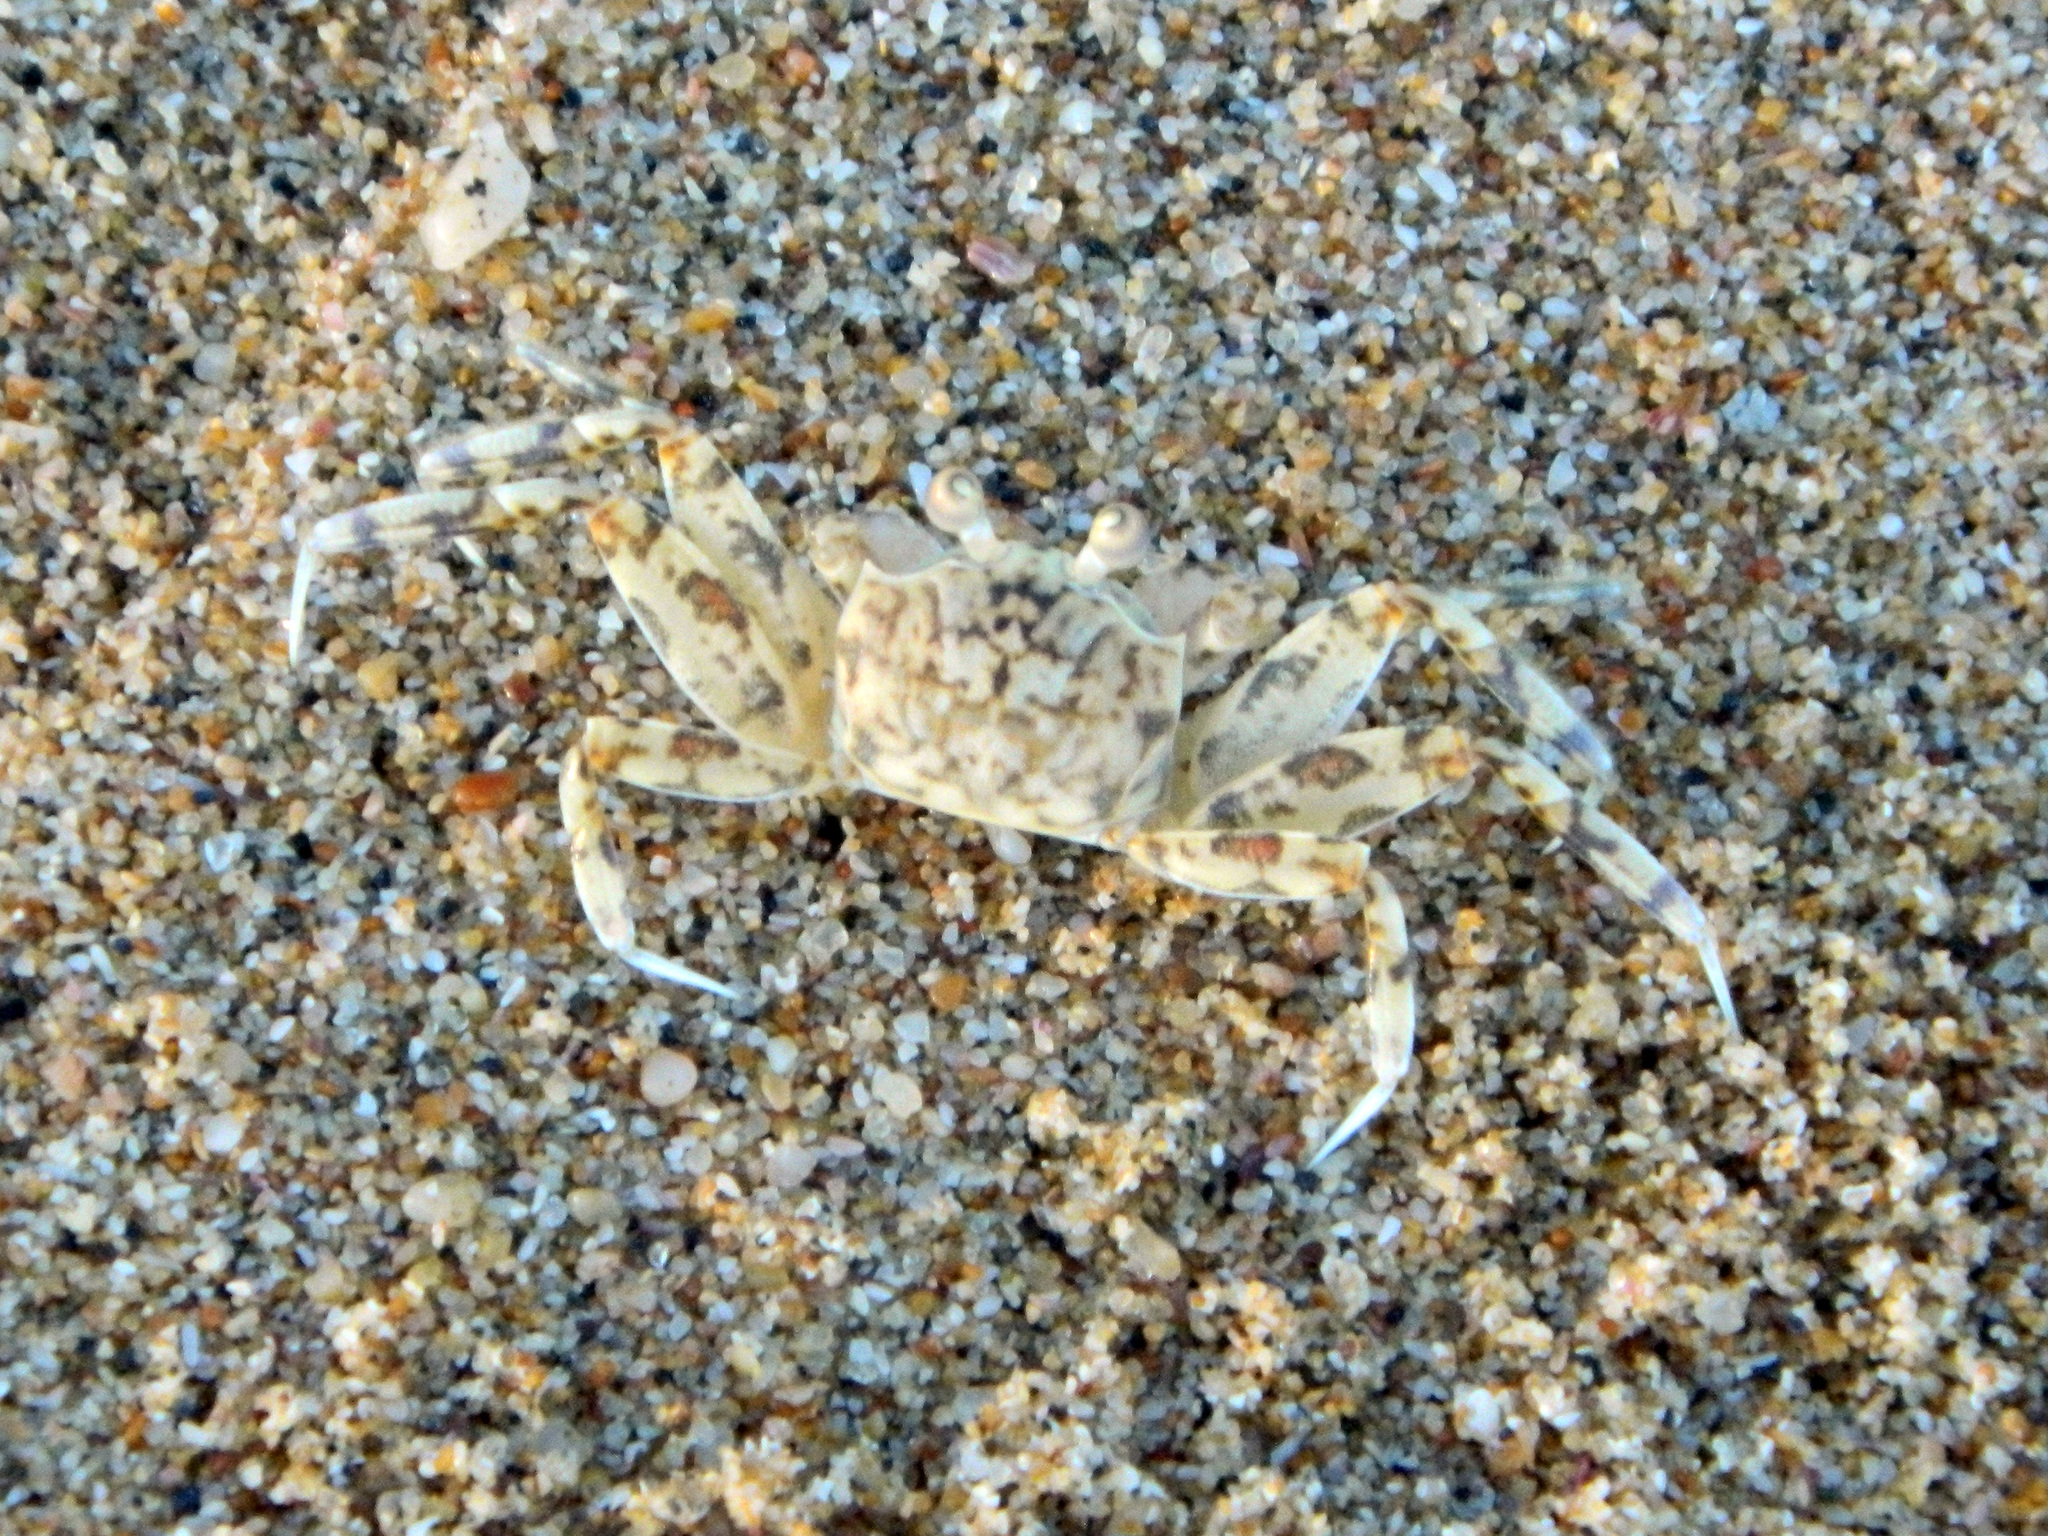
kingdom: Animalia
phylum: Arthropoda
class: Malacostraca
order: Decapoda
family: Ocypodidae
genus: Ocypode
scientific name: Ocypode occidentalis
